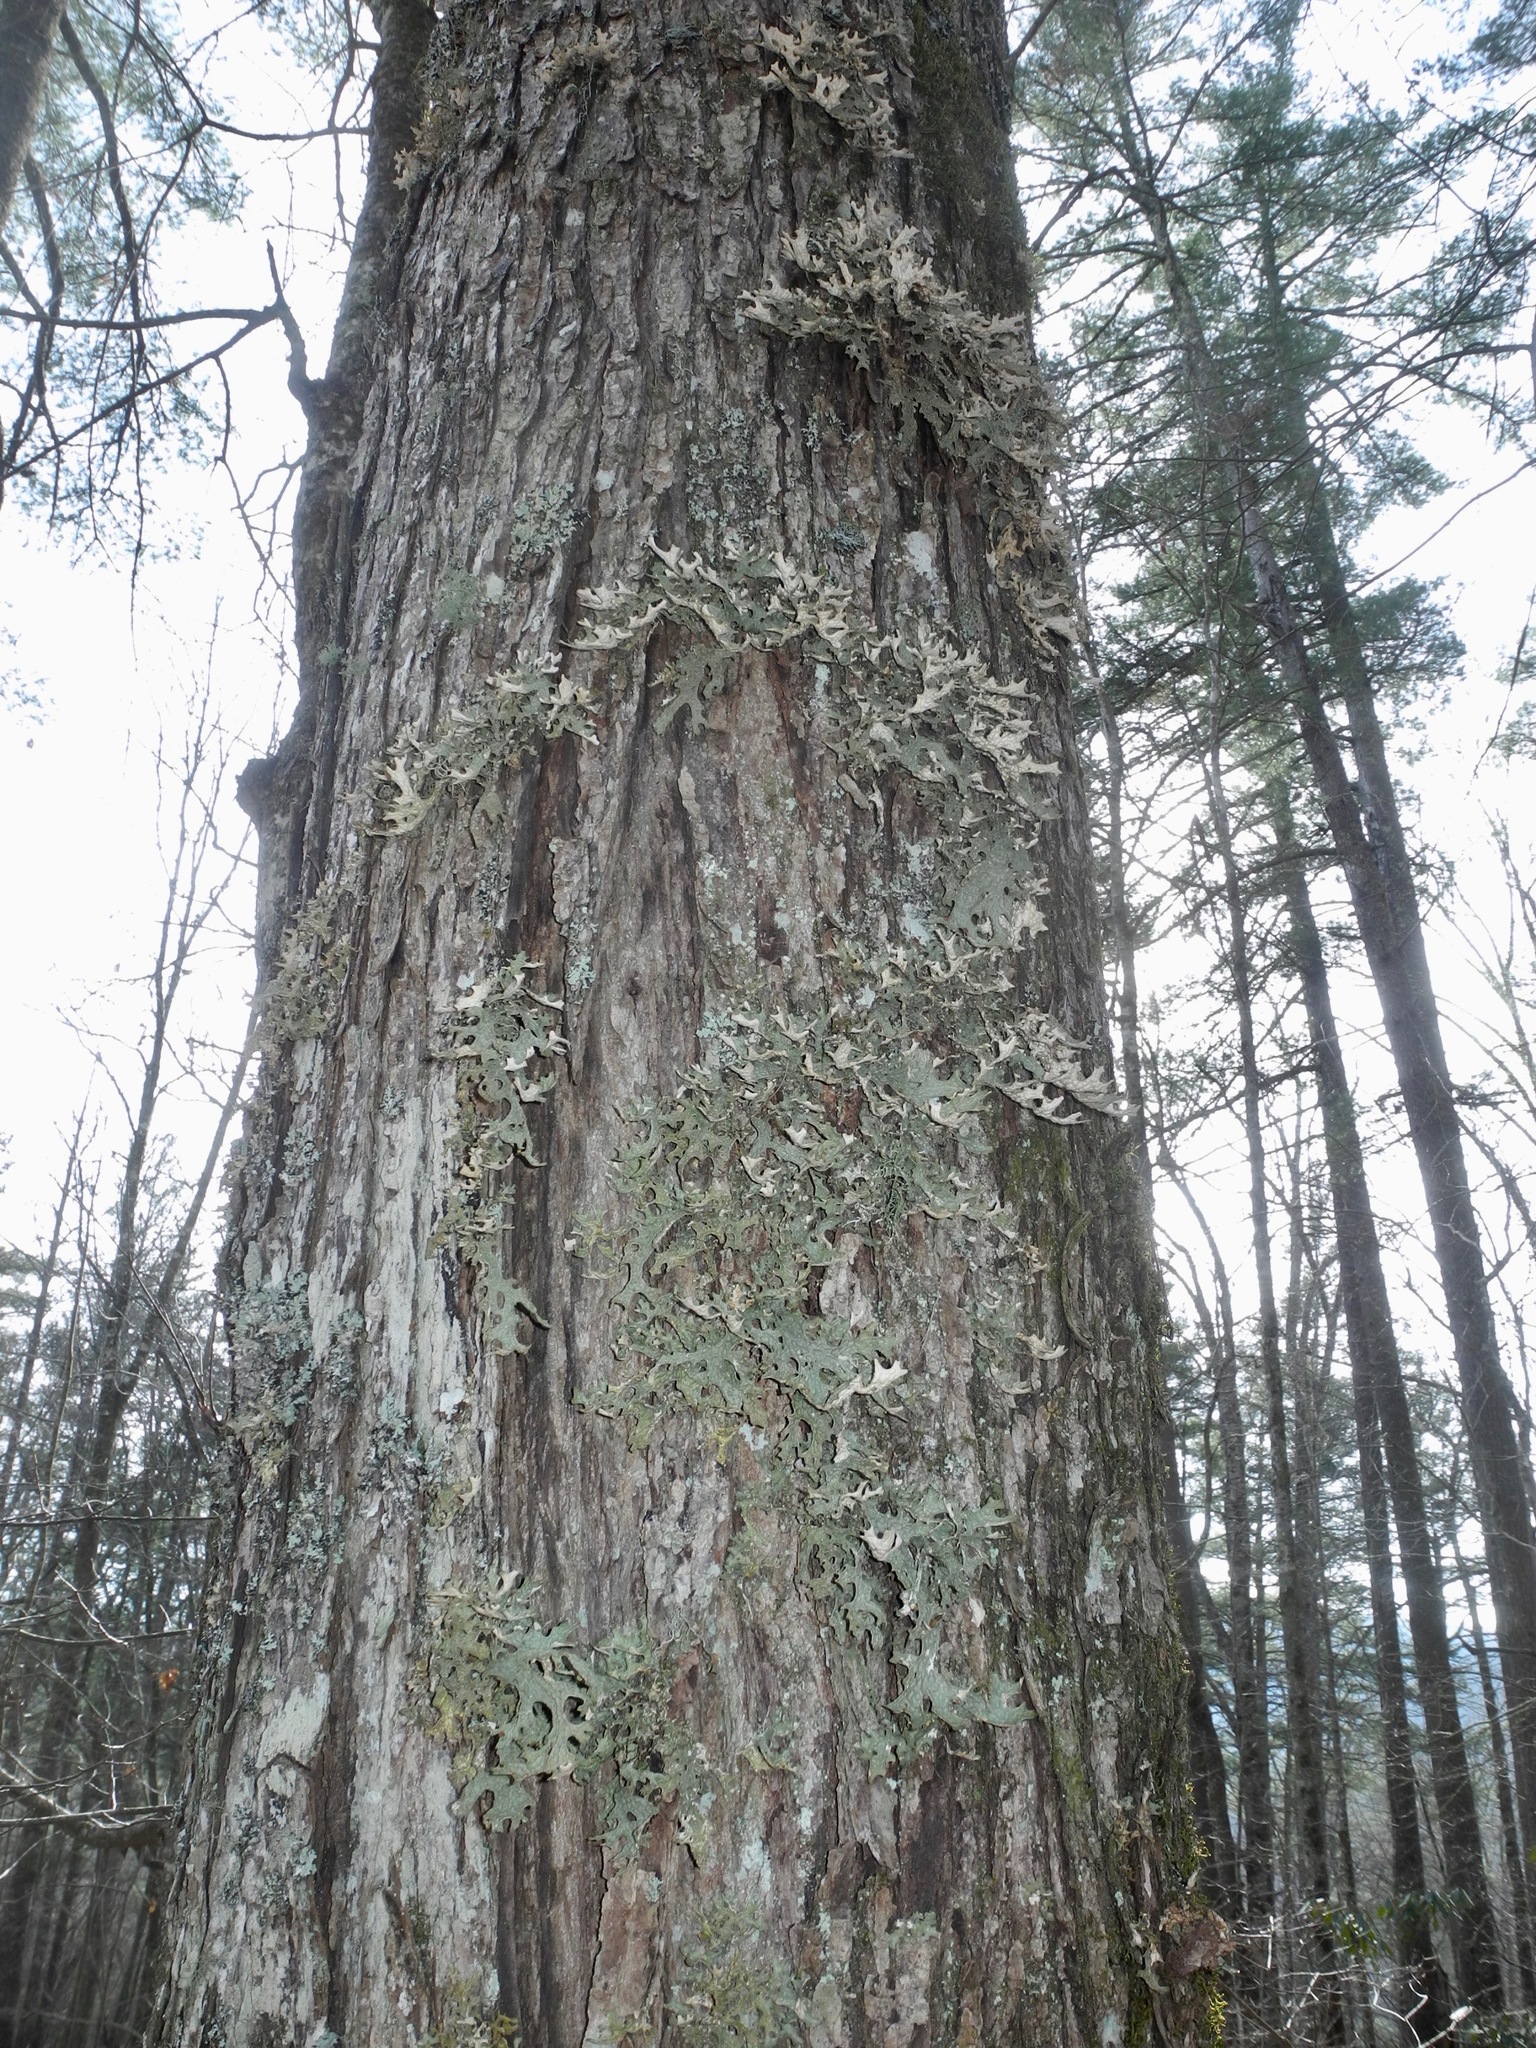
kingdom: Fungi
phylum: Ascomycota
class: Lecanoromycetes
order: Peltigerales
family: Lobariaceae
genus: Lobaria
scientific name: Lobaria pulmonaria
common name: Lungwort
